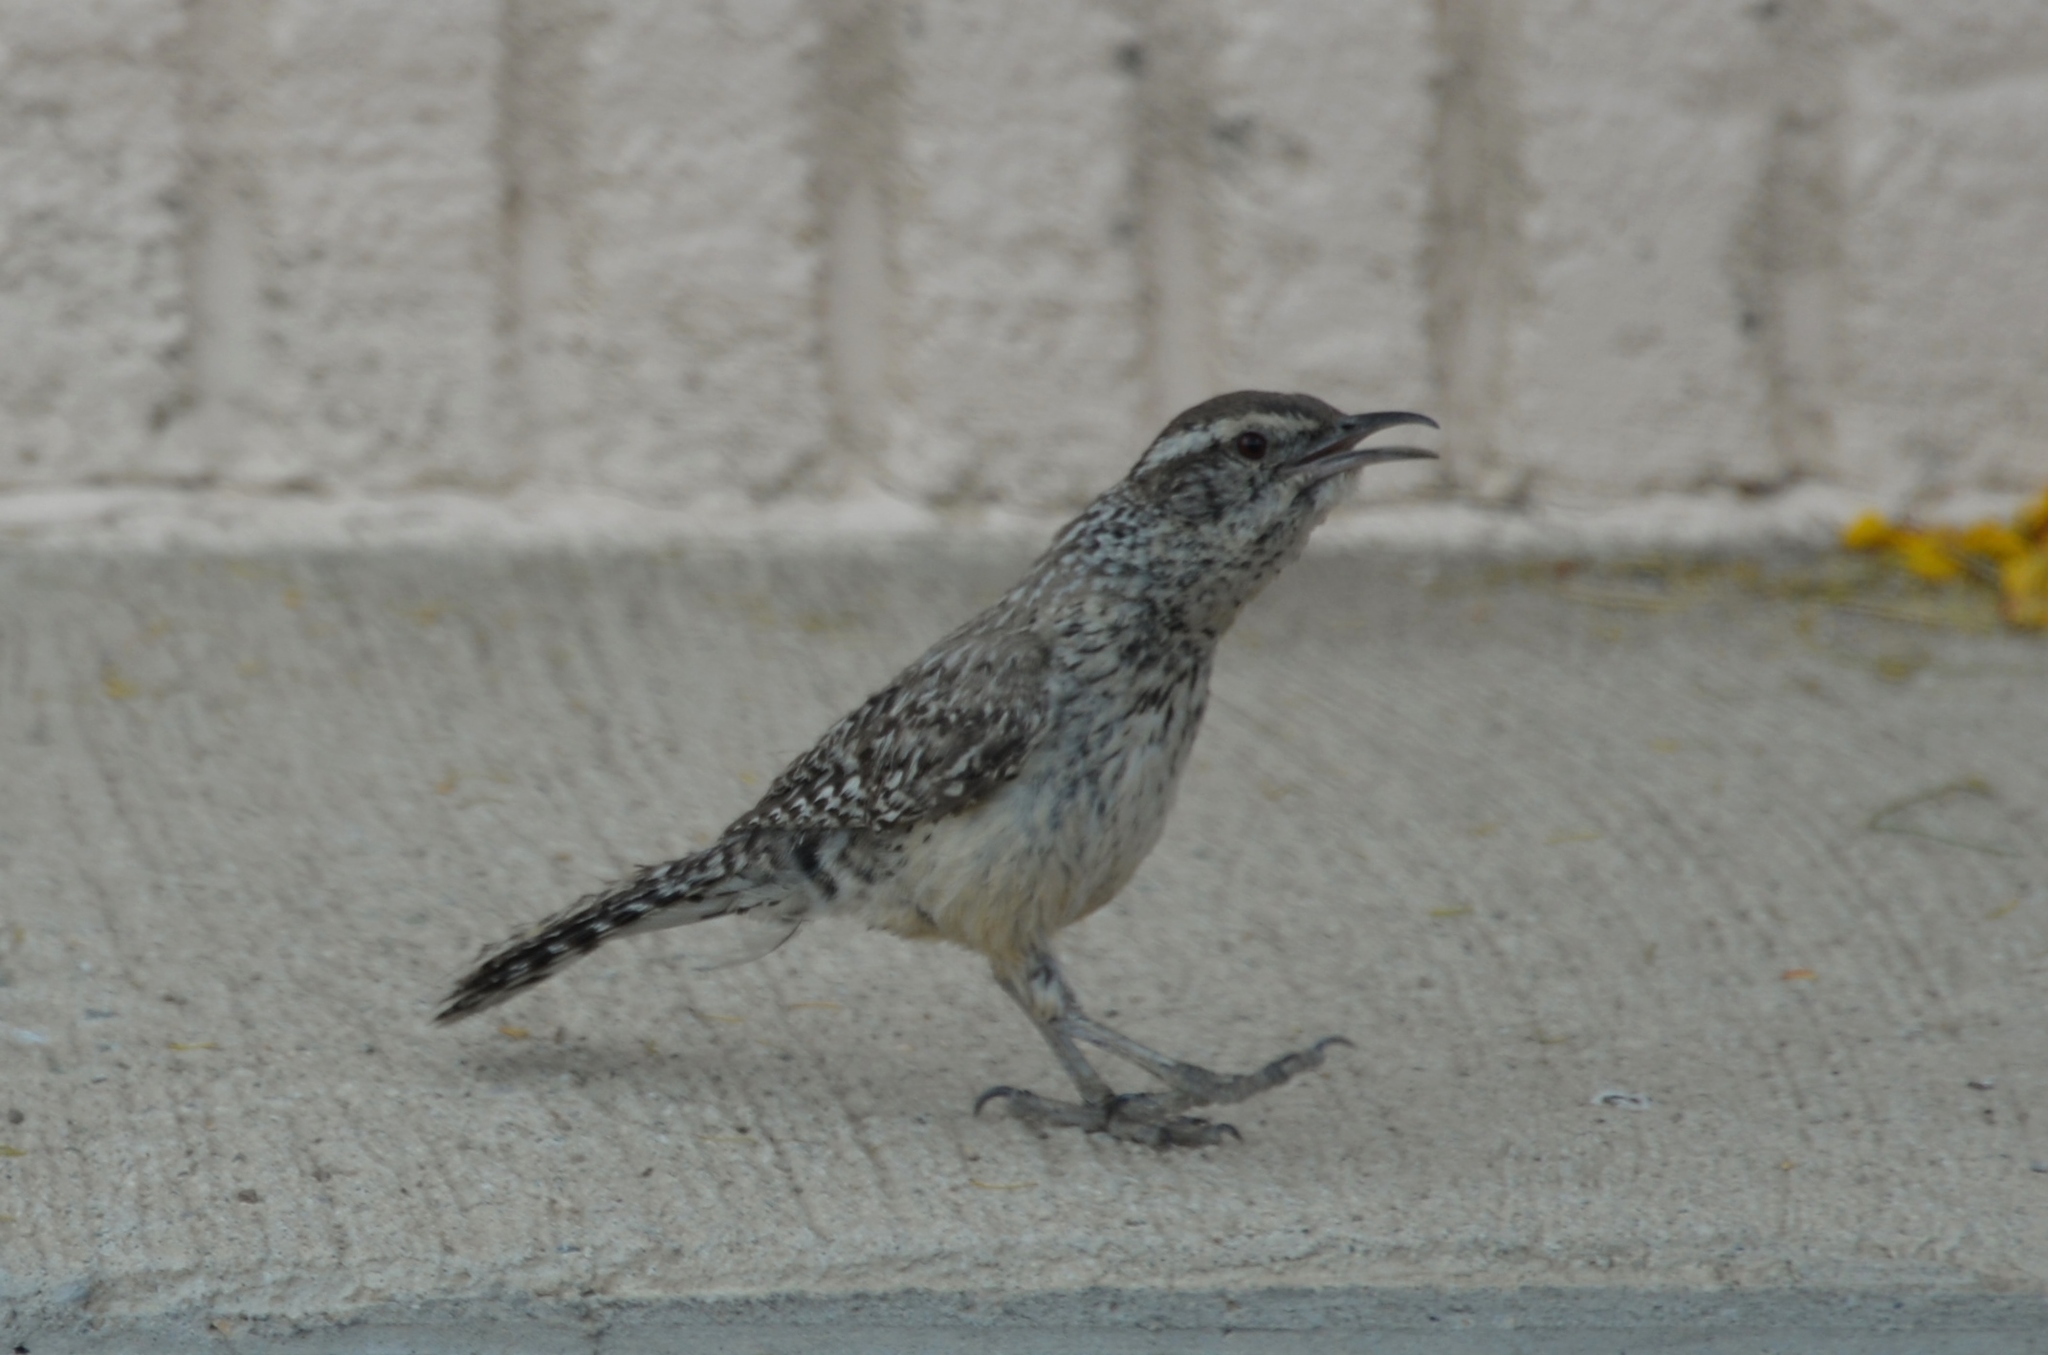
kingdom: Animalia
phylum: Chordata
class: Aves
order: Passeriformes
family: Troglodytidae
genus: Campylorhynchus
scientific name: Campylorhynchus brunneicapillus
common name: Cactus wren
